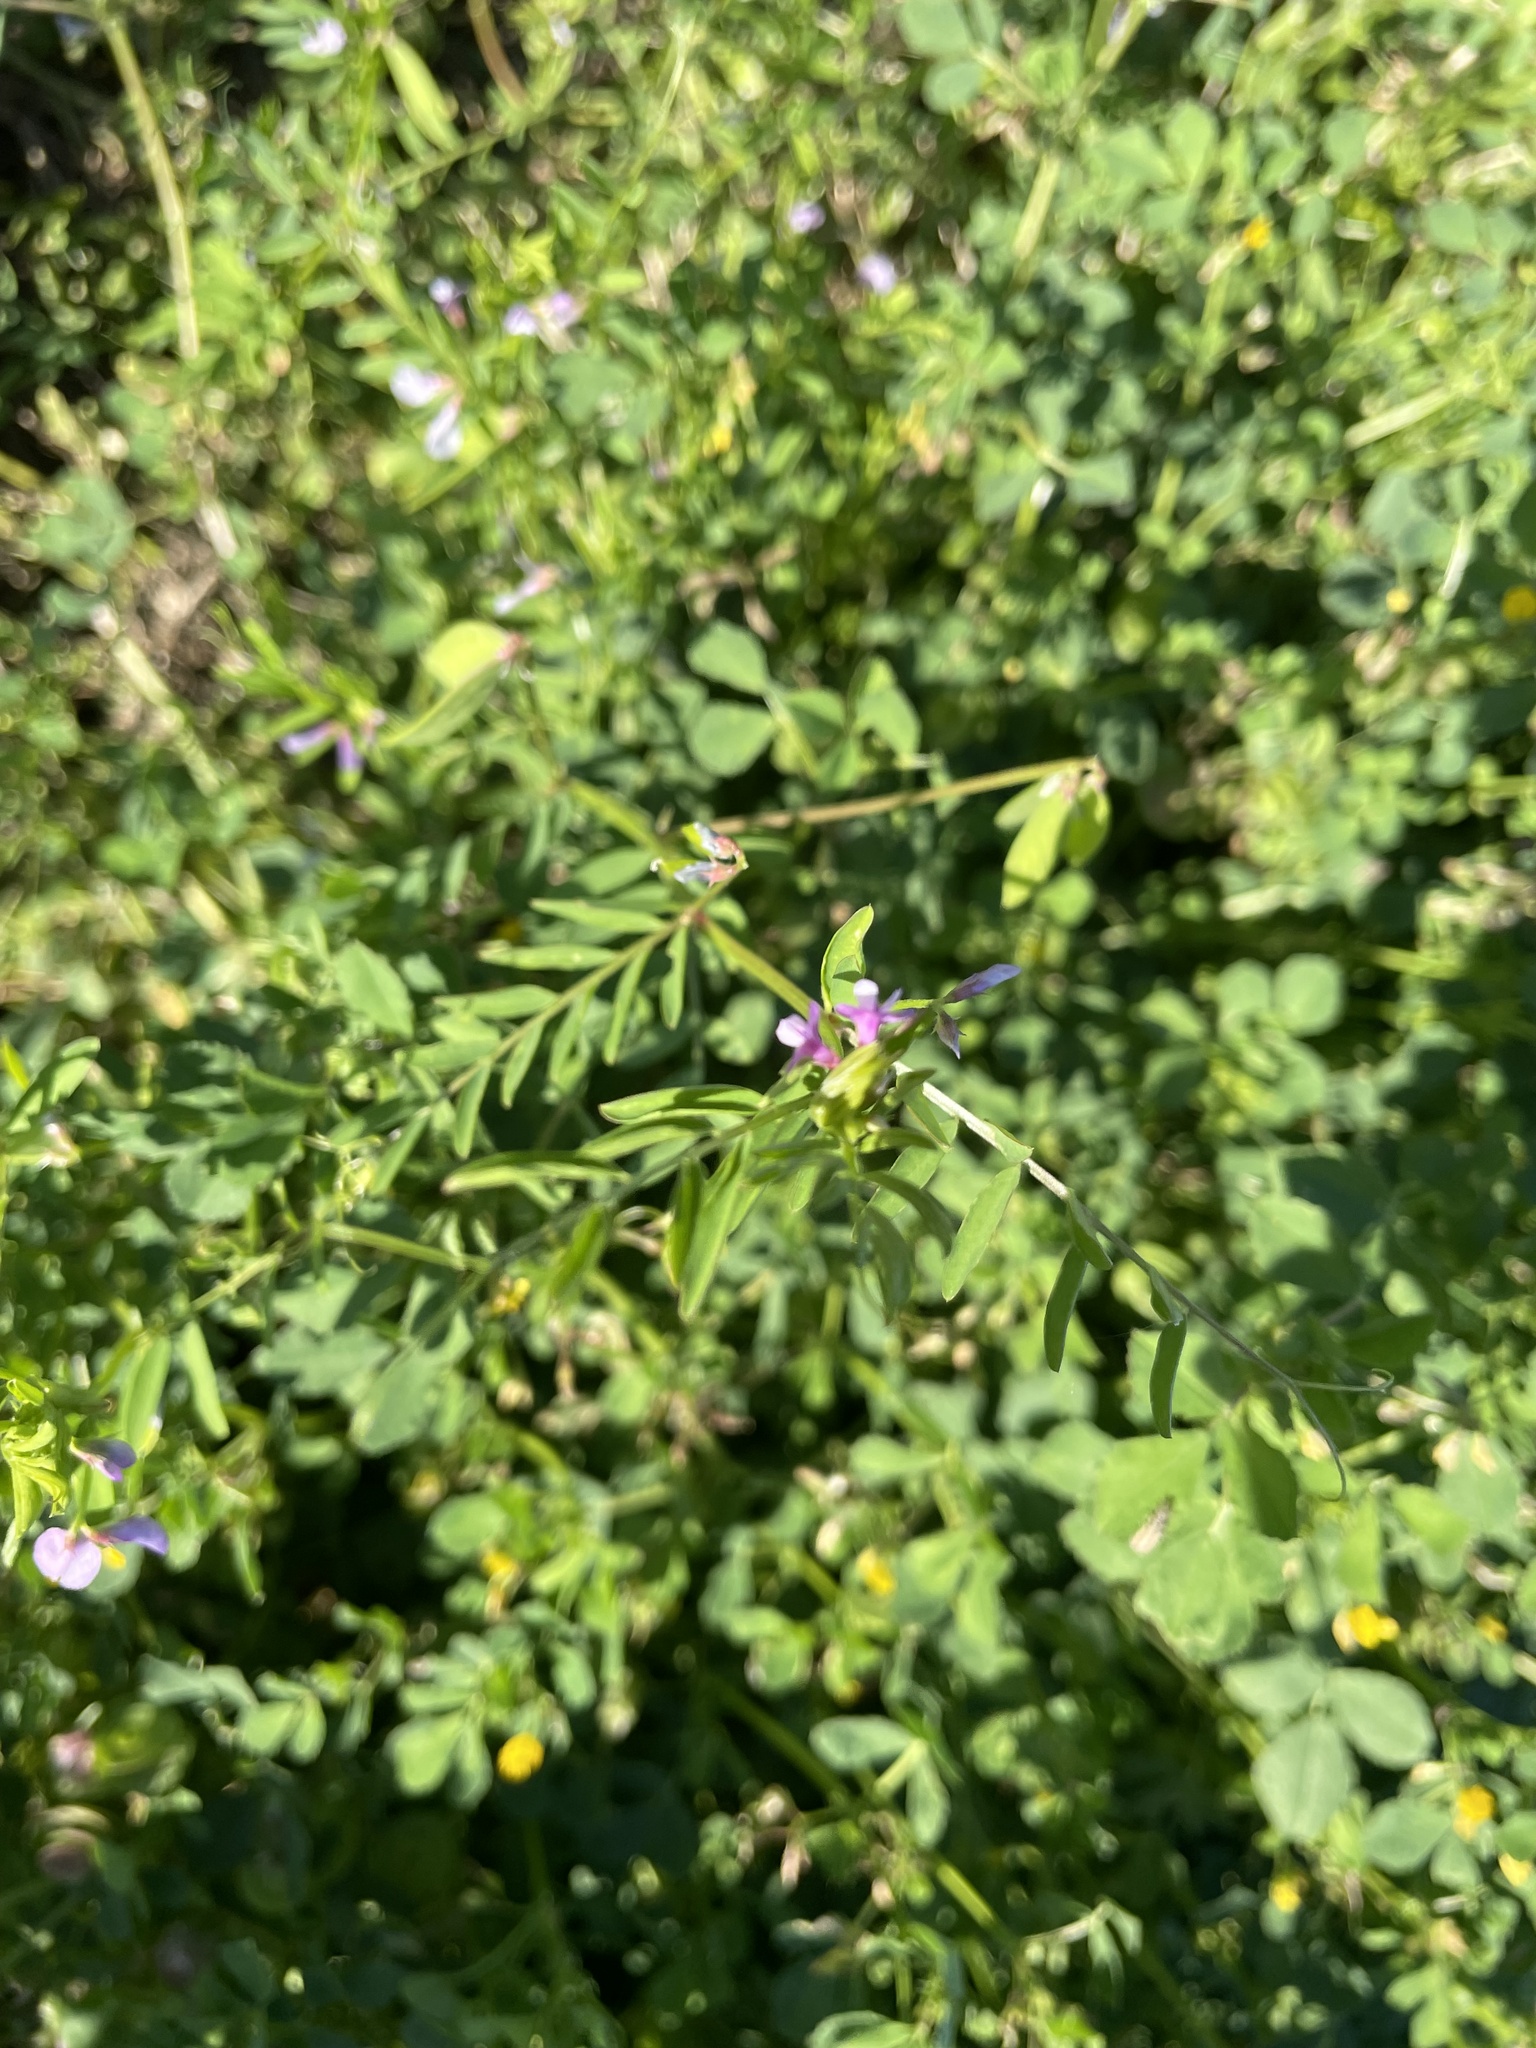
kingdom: Plantae
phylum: Tracheophyta
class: Magnoliopsida
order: Fabales
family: Fabaceae
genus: Vicia
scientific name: Vicia ludoviciana
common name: Louisiana vetch
